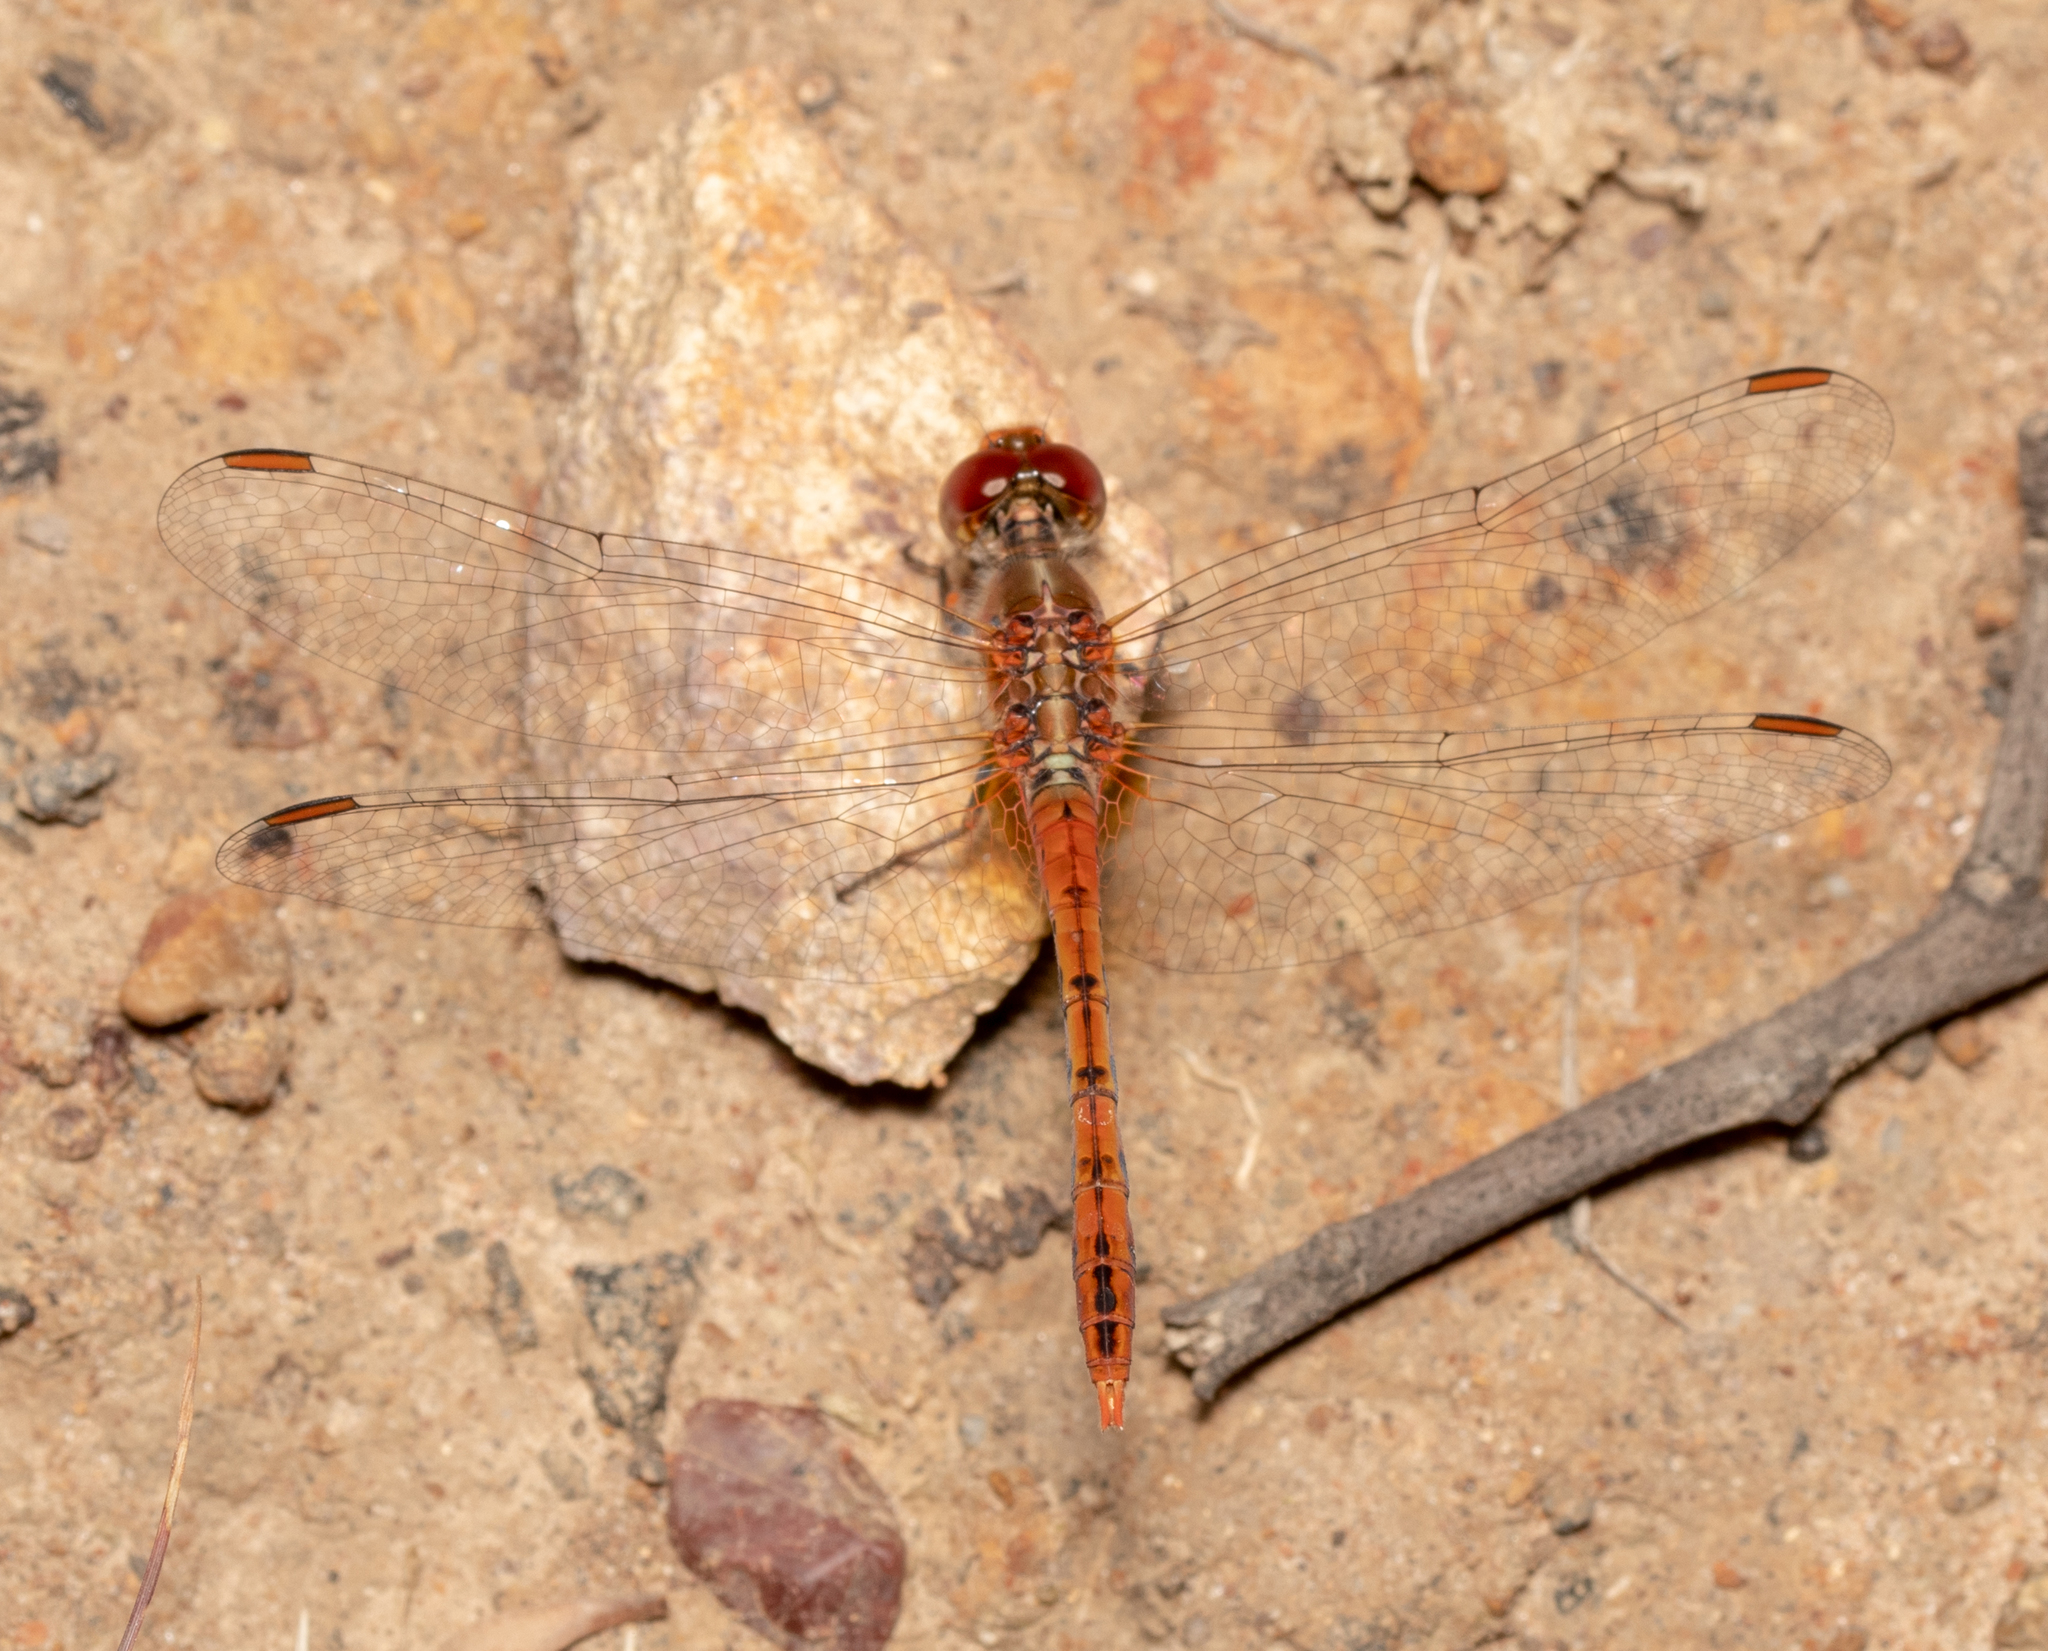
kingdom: Animalia
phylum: Arthropoda
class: Insecta
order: Odonata
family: Libellulidae
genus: Diplacodes
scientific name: Diplacodes bipunctata
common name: Red percher dragonfly
